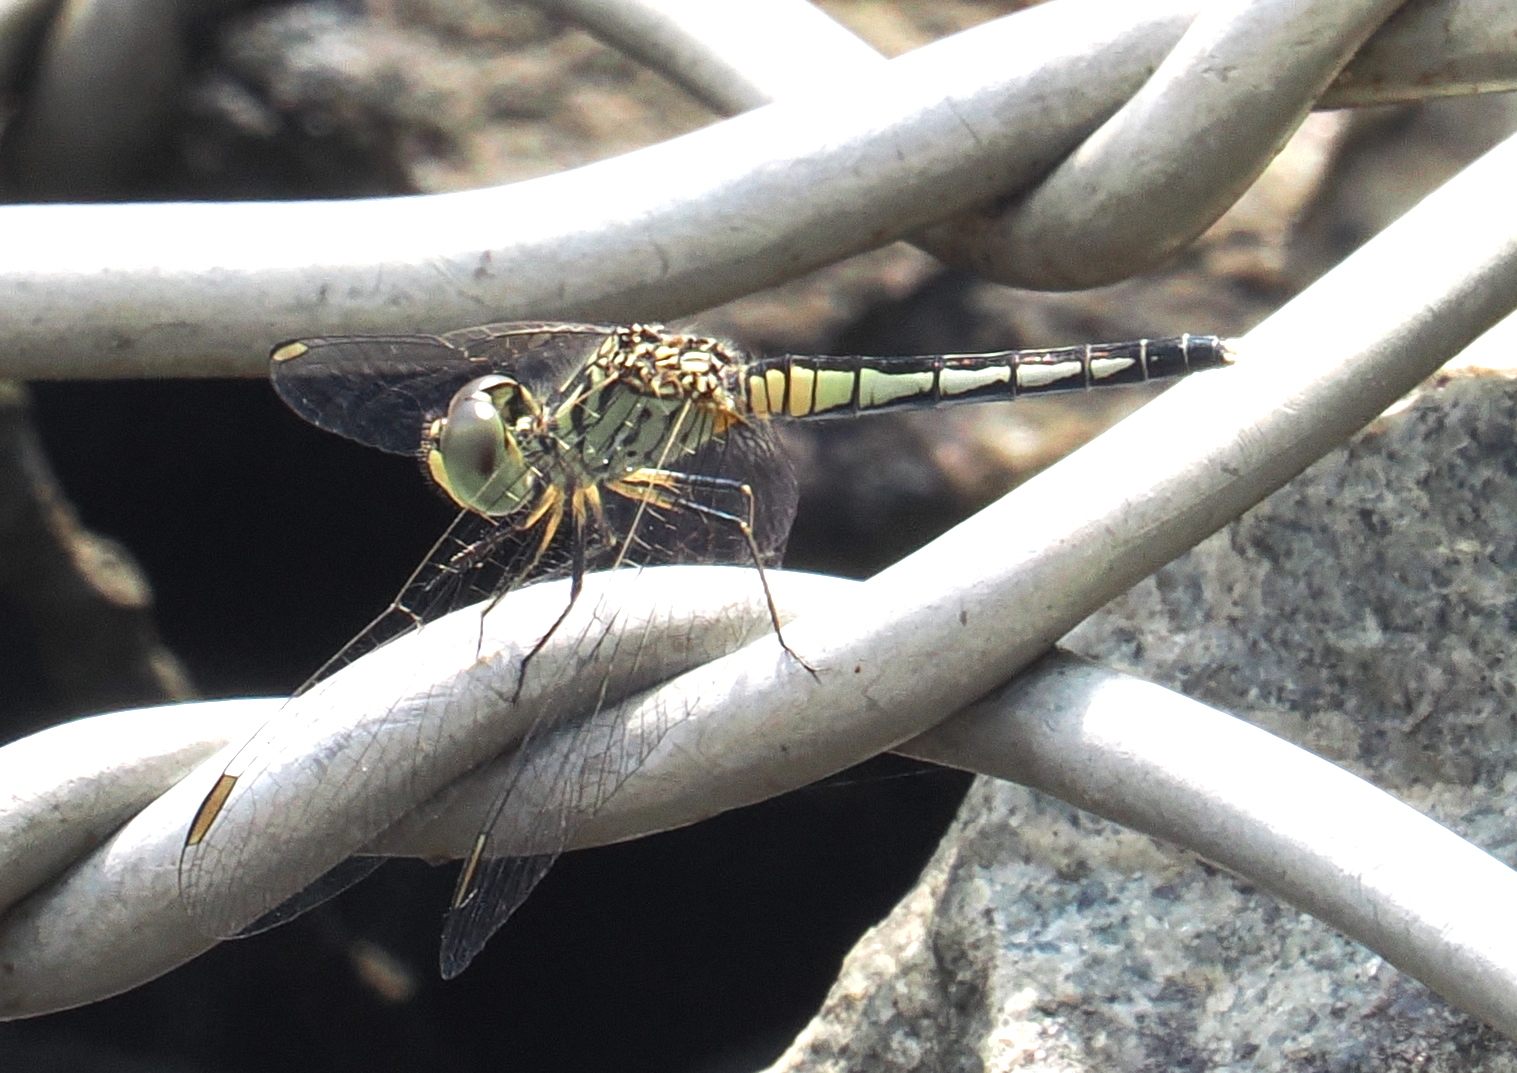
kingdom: Animalia
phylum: Arthropoda
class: Insecta
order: Odonata
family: Libellulidae
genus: Diplacodes
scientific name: Diplacodes nebulosa
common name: Black-tipped percher
